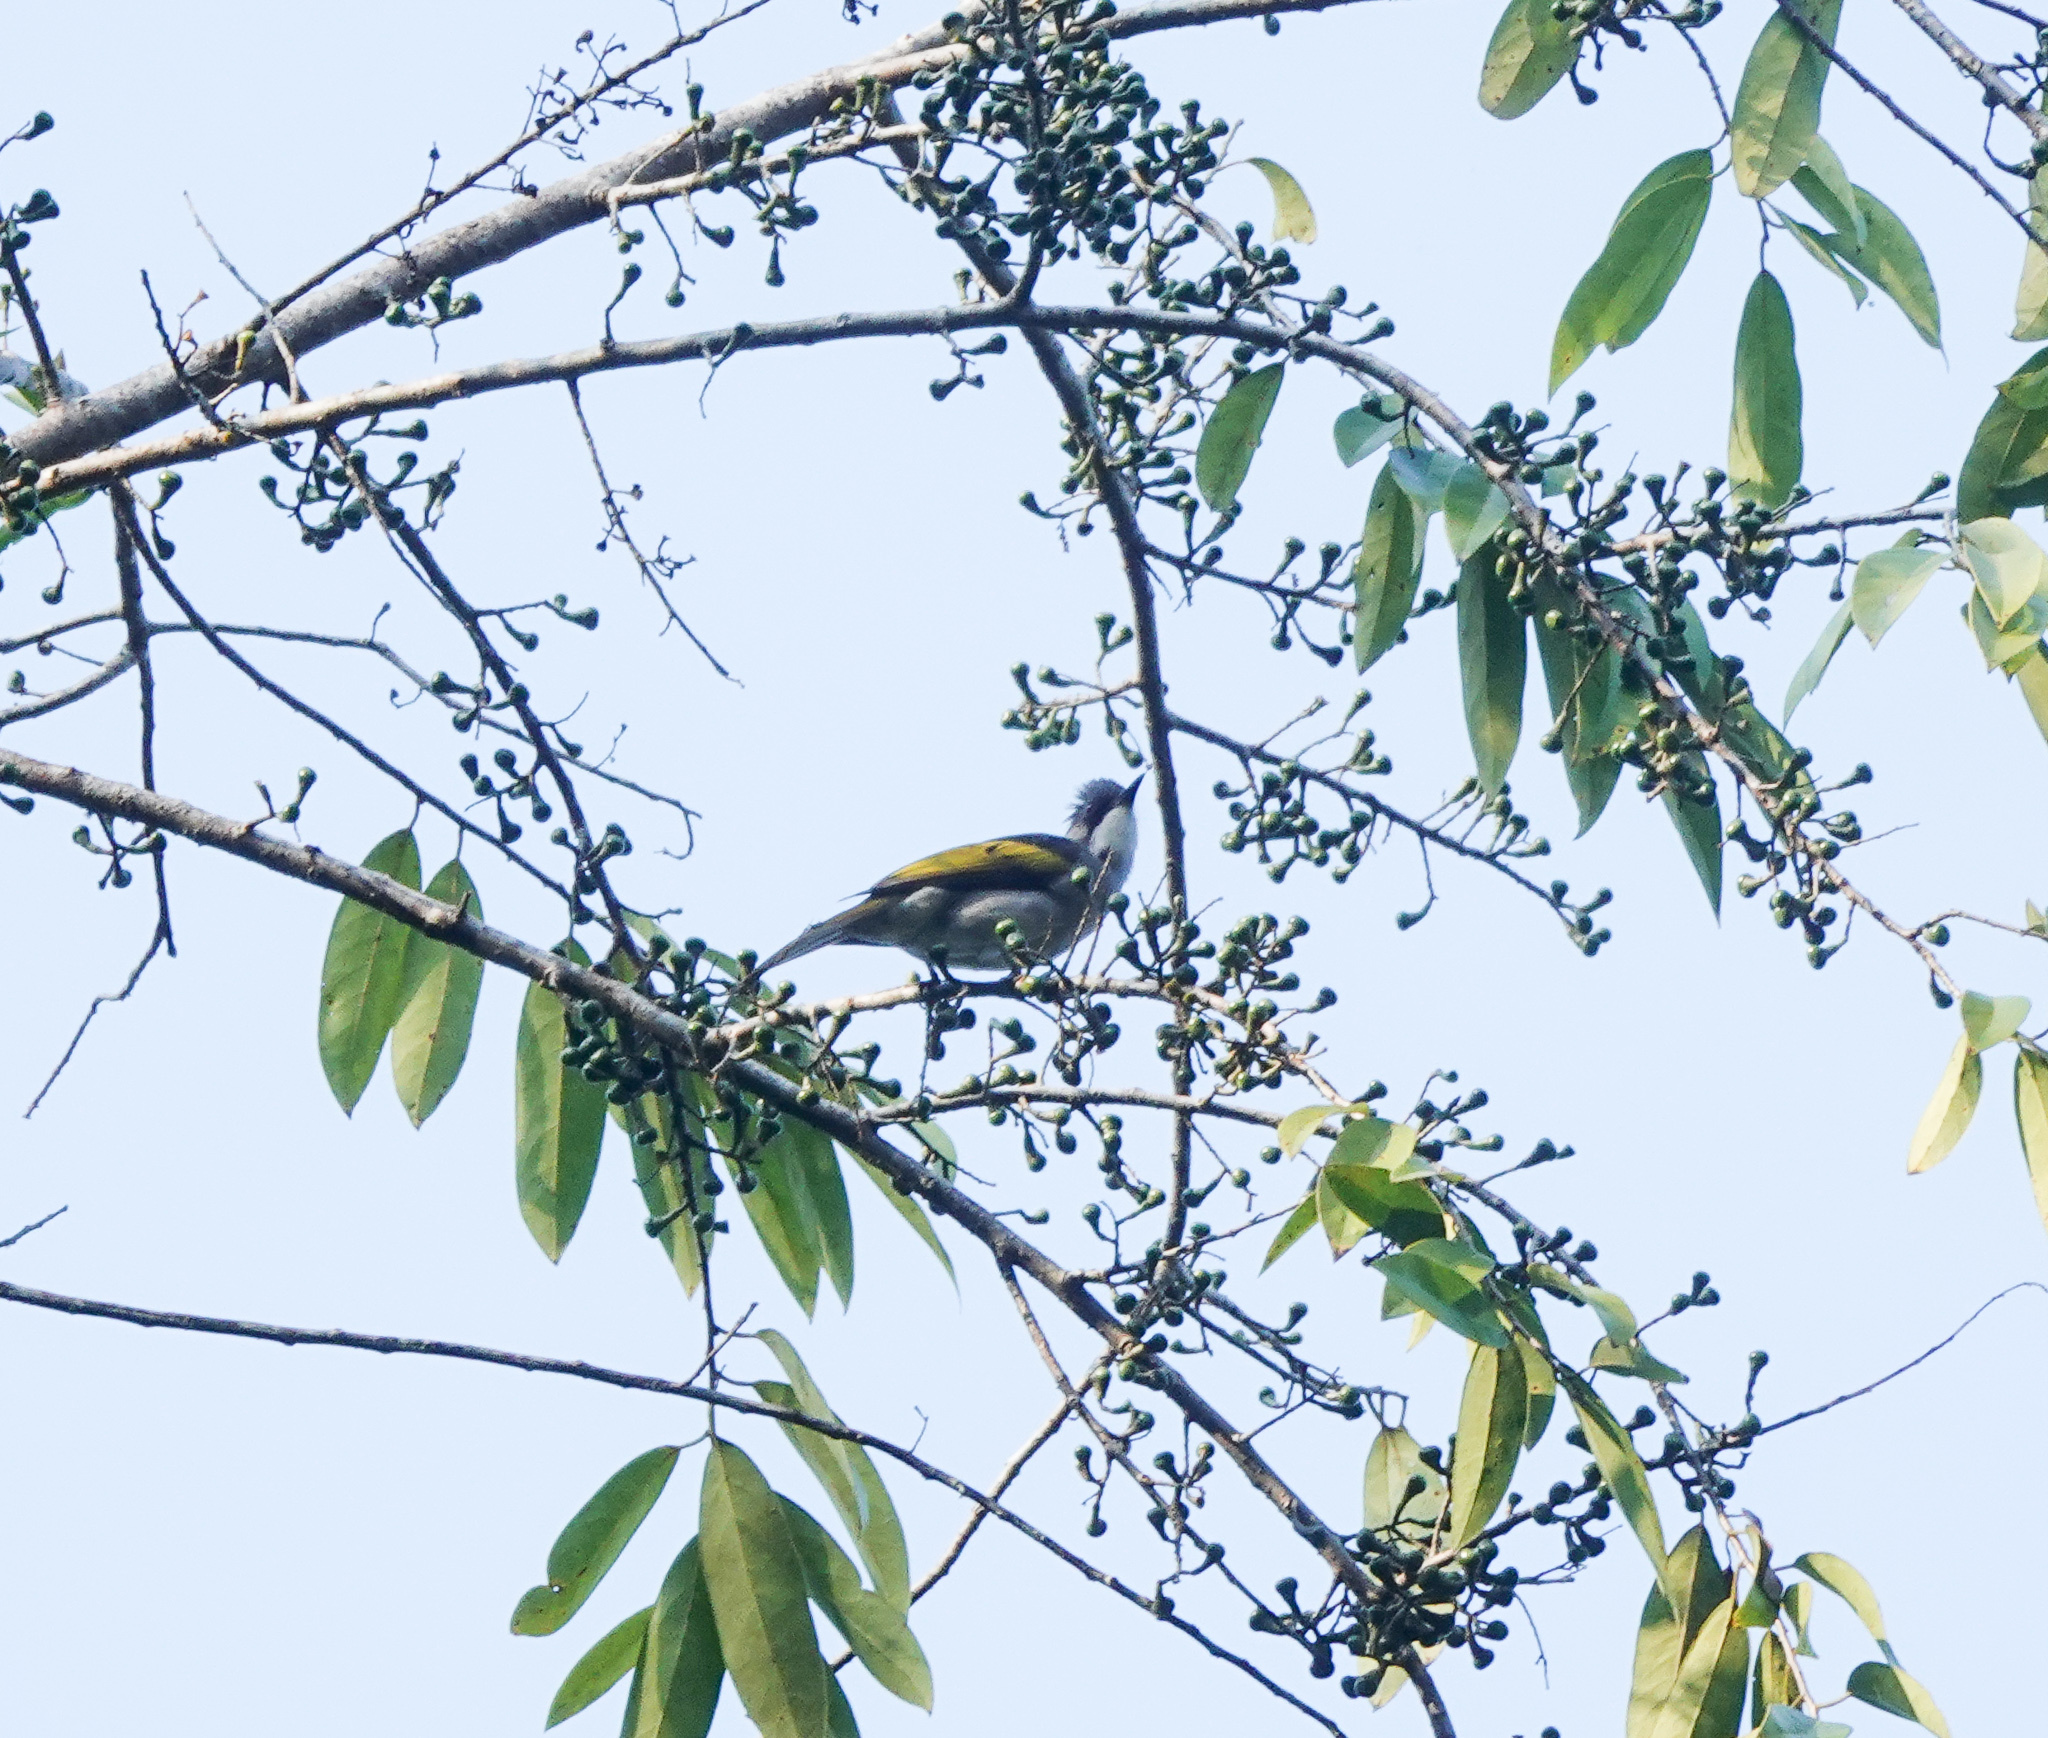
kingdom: Animalia
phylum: Chordata
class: Aves
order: Passeriformes
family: Pycnonotidae
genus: Hemixos
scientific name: Hemixos flavala
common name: Ashy bulbul
